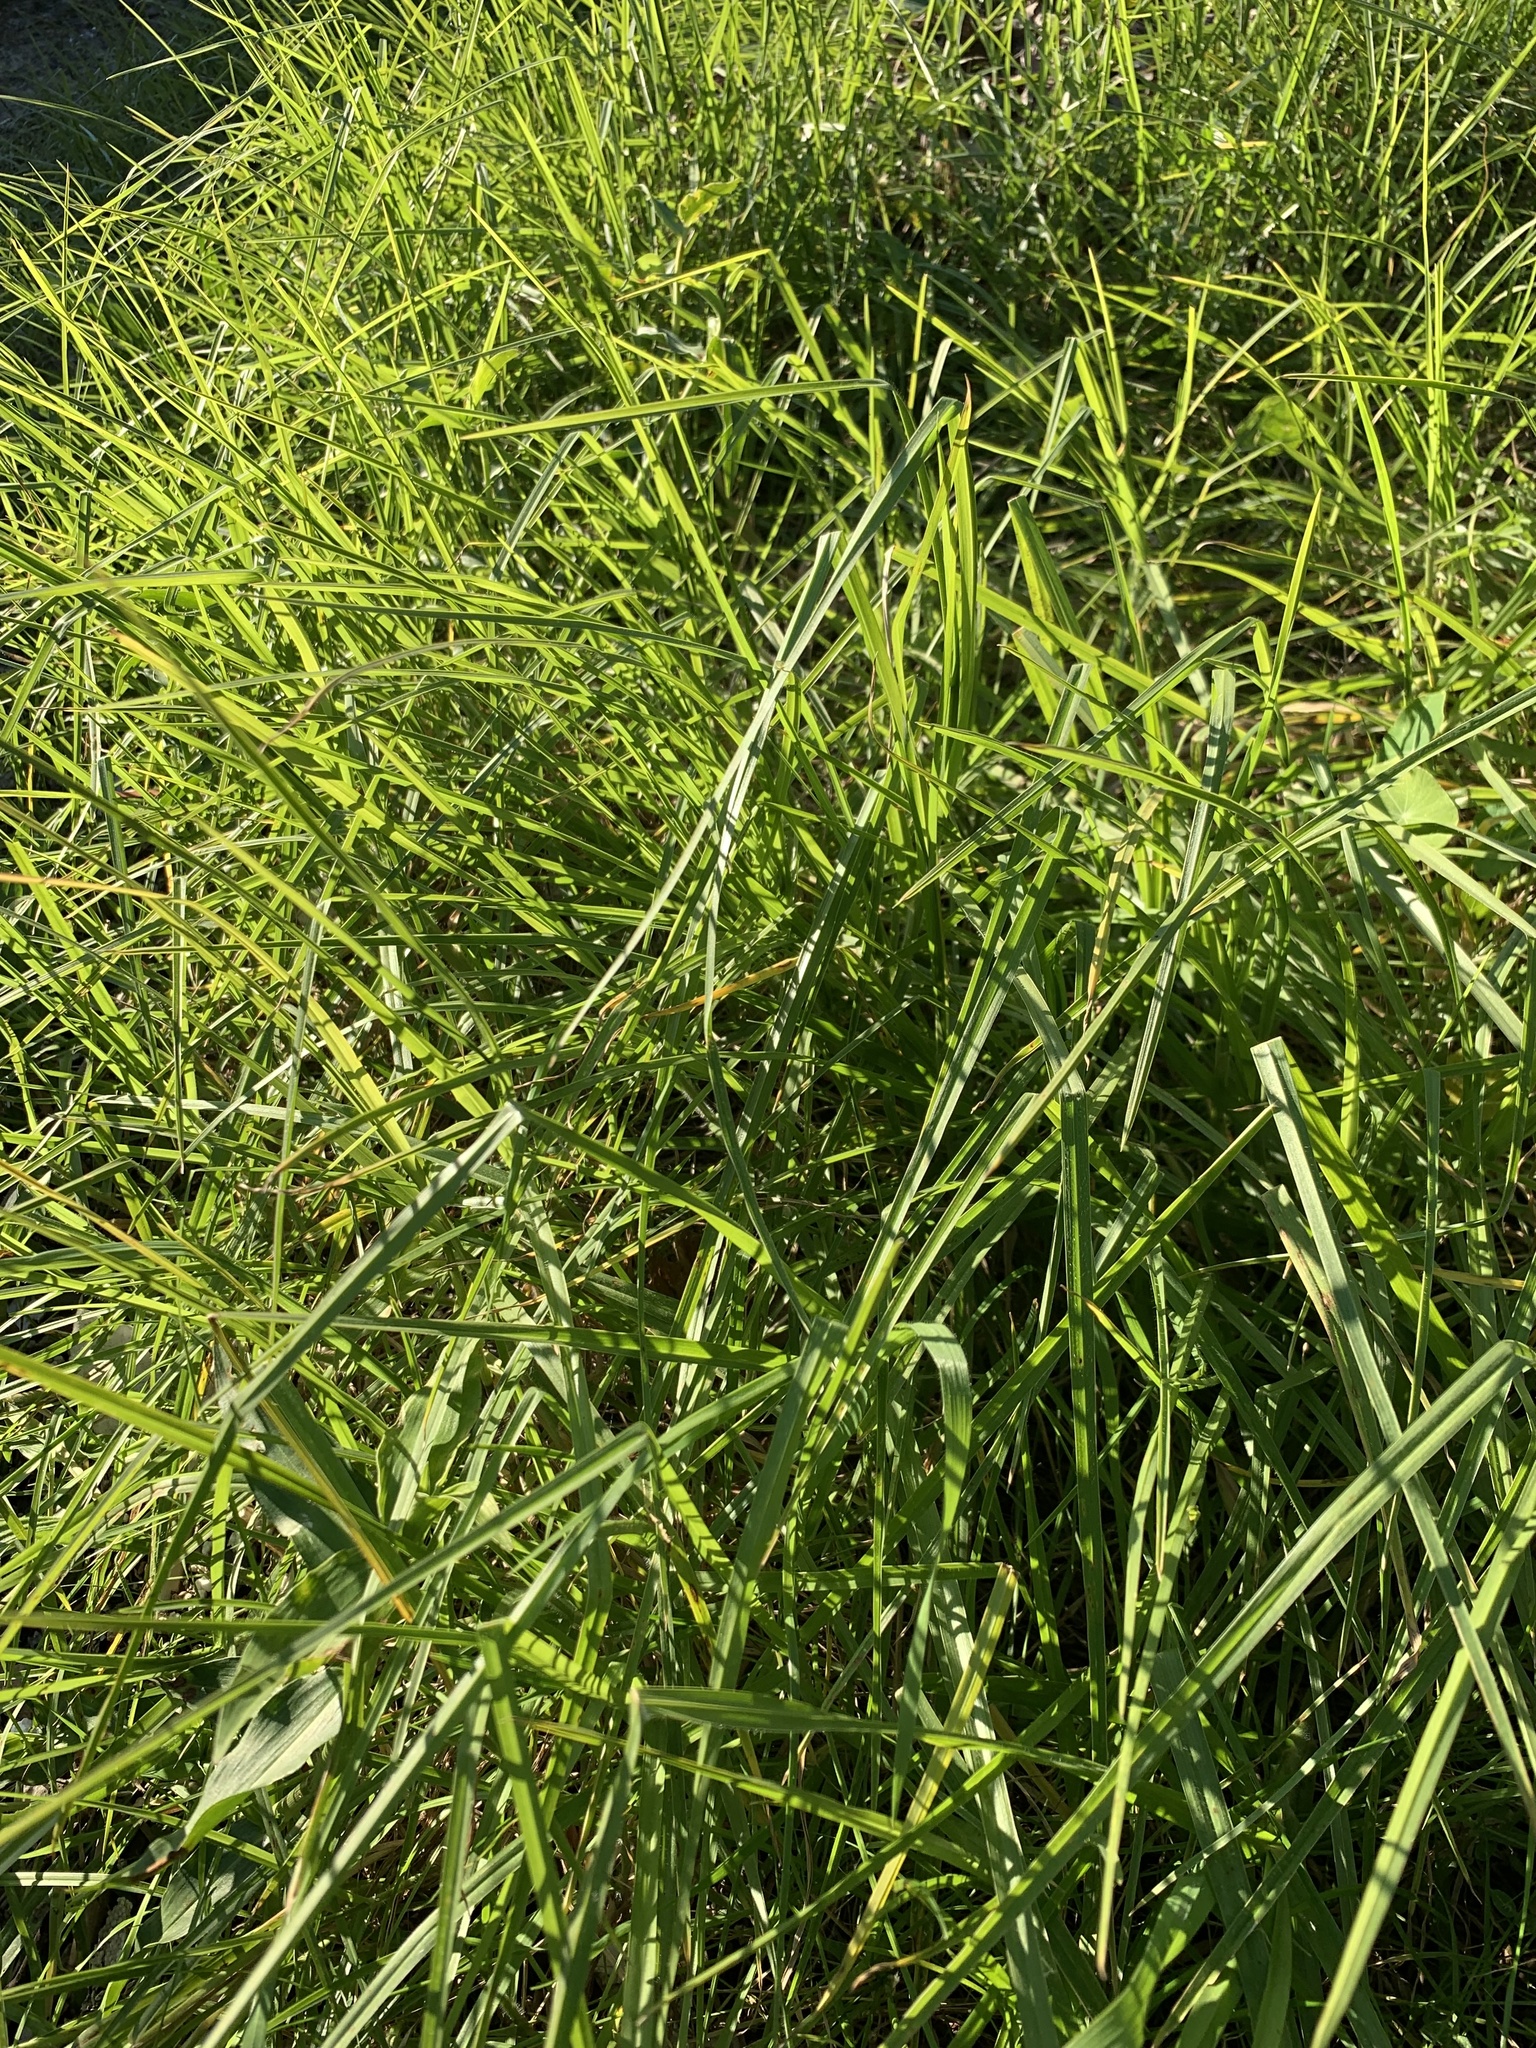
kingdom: Plantae
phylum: Tracheophyta
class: Liliopsida
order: Poales
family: Poaceae
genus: Cenchrus
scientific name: Cenchrus clandestinus
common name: Kikuyugrass
